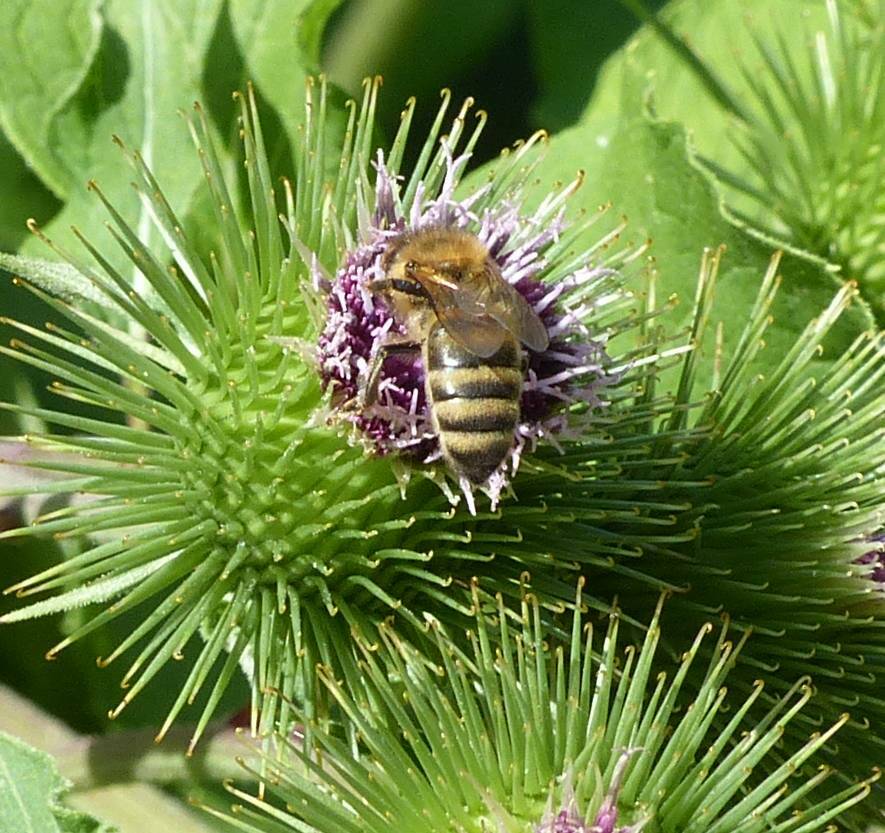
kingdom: Animalia
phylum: Arthropoda
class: Insecta
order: Hymenoptera
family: Apidae
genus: Apis
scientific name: Apis mellifera
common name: Honey bee
